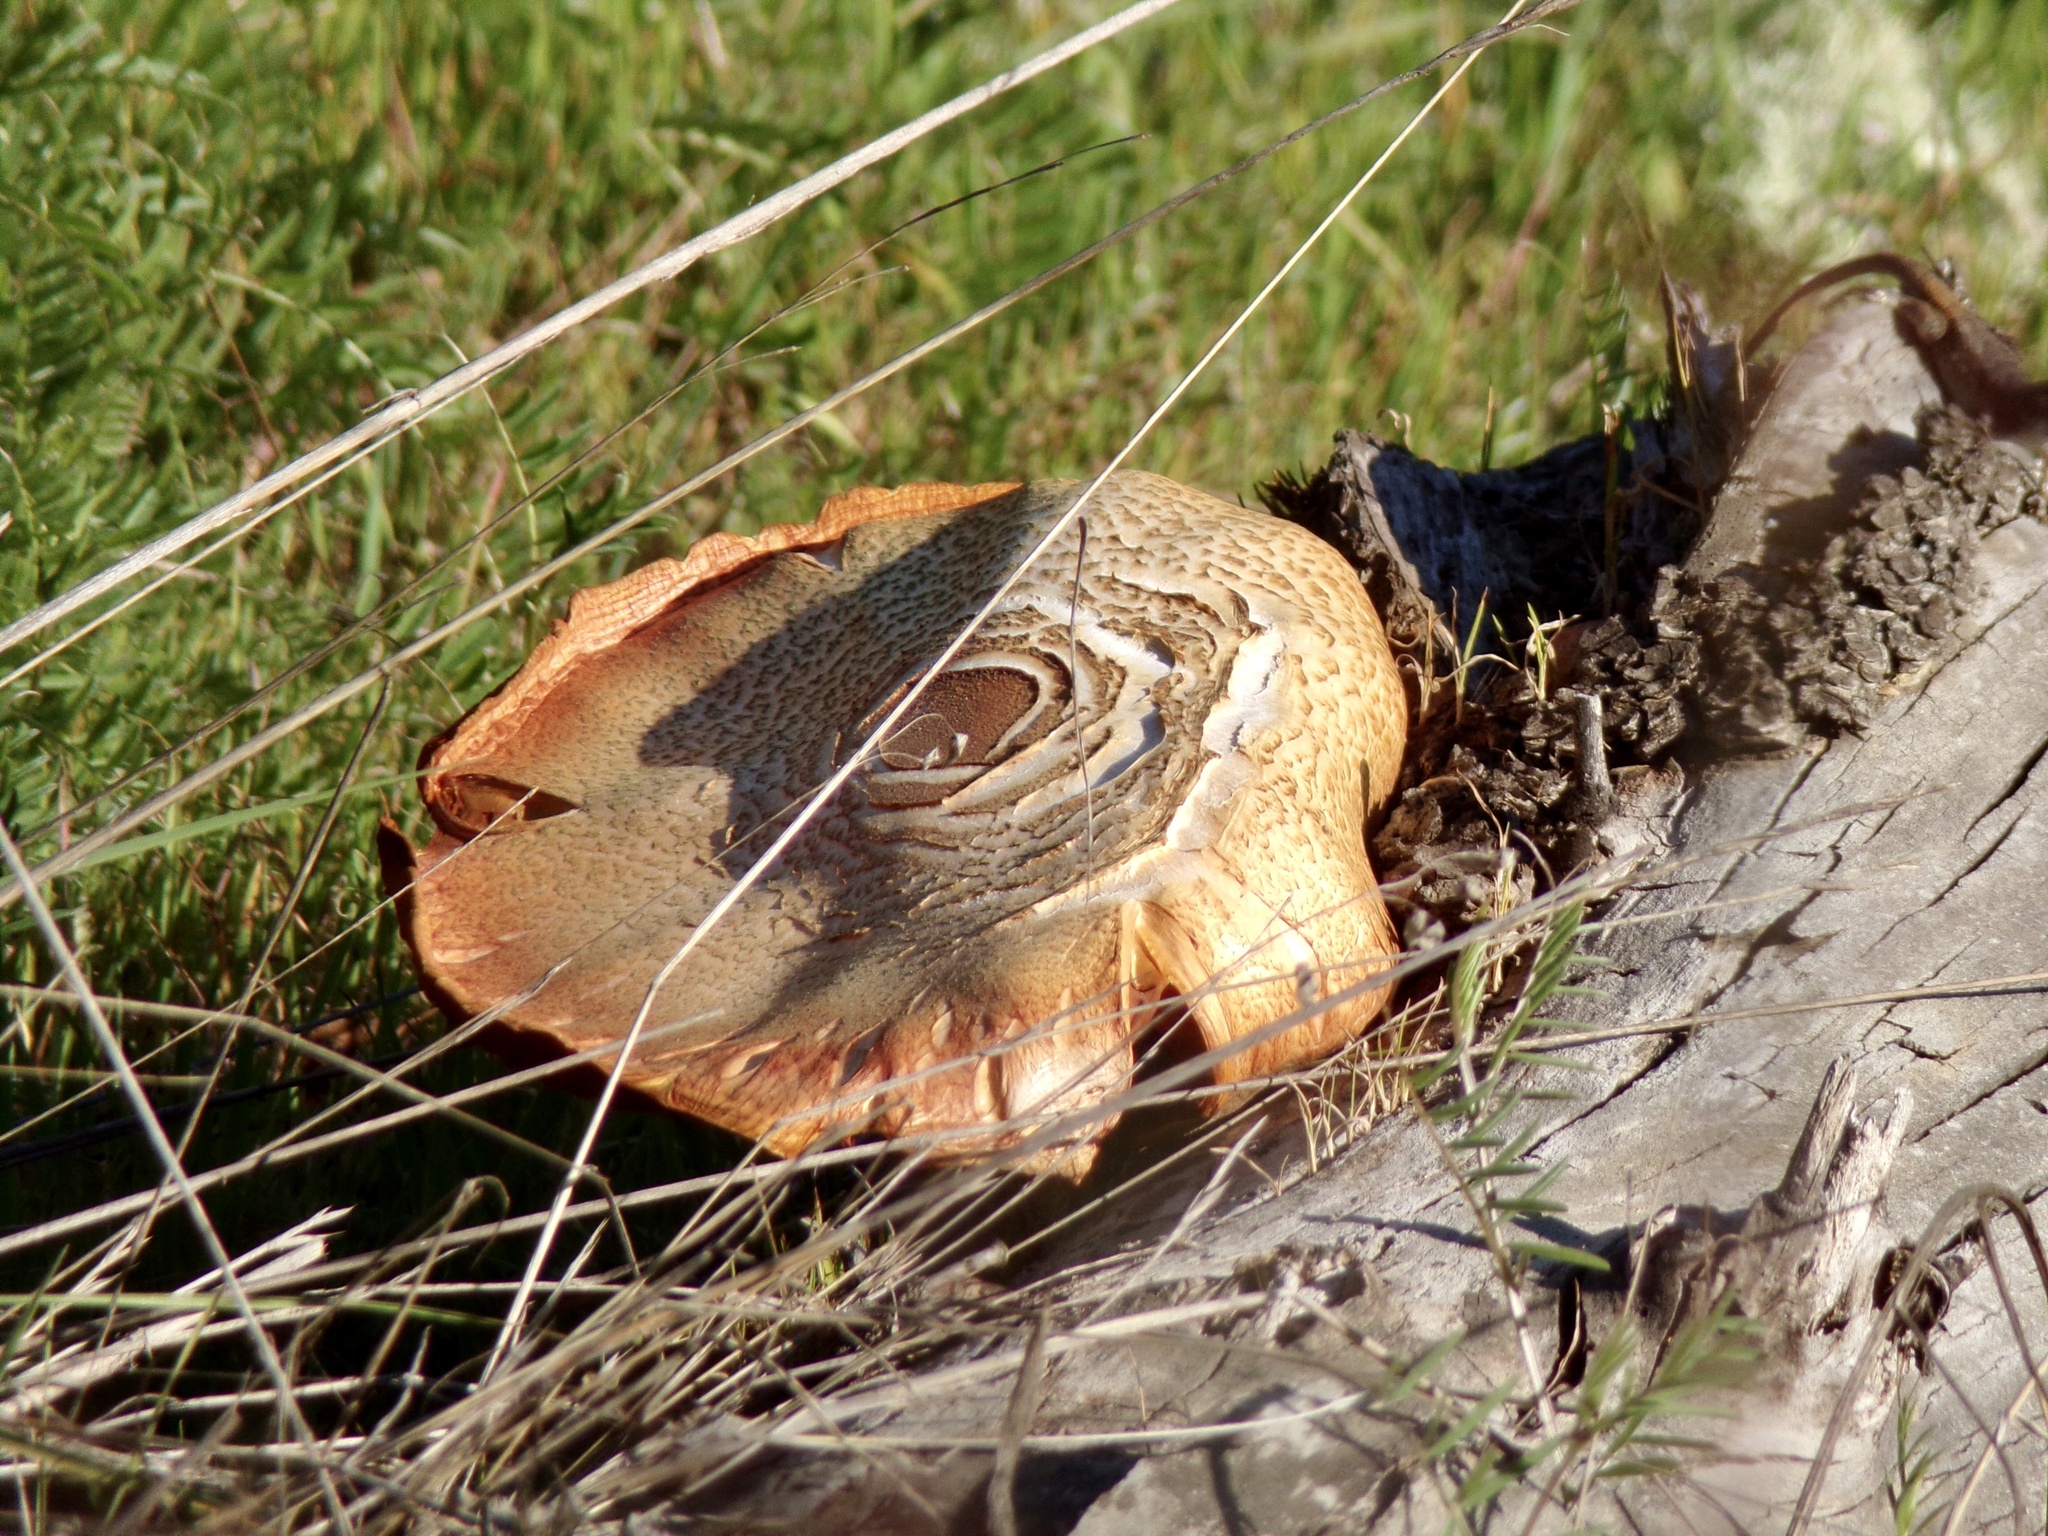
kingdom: Fungi
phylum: Basidiomycota
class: Agaricomycetes
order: Agaricales
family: Hymenogastraceae
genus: Gymnopilus
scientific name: Gymnopilus luteofolius
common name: Yellow-gilled gymnopilus
